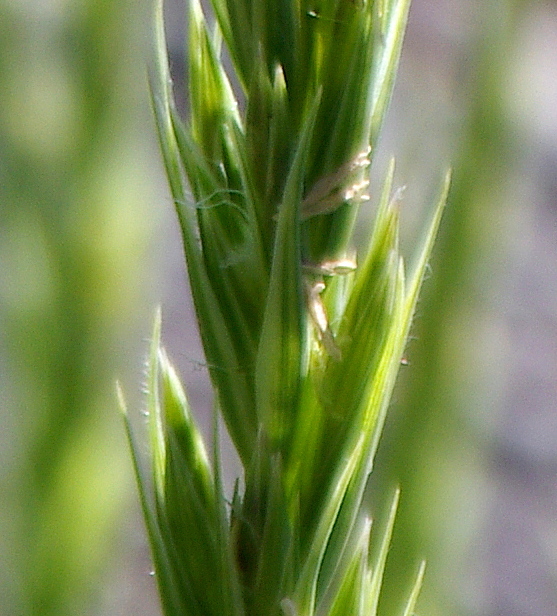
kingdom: Plantae
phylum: Tracheophyta
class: Liliopsida
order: Poales
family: Poaceae
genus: Leymus
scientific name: Leymus arenarius
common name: Lyme-grass
